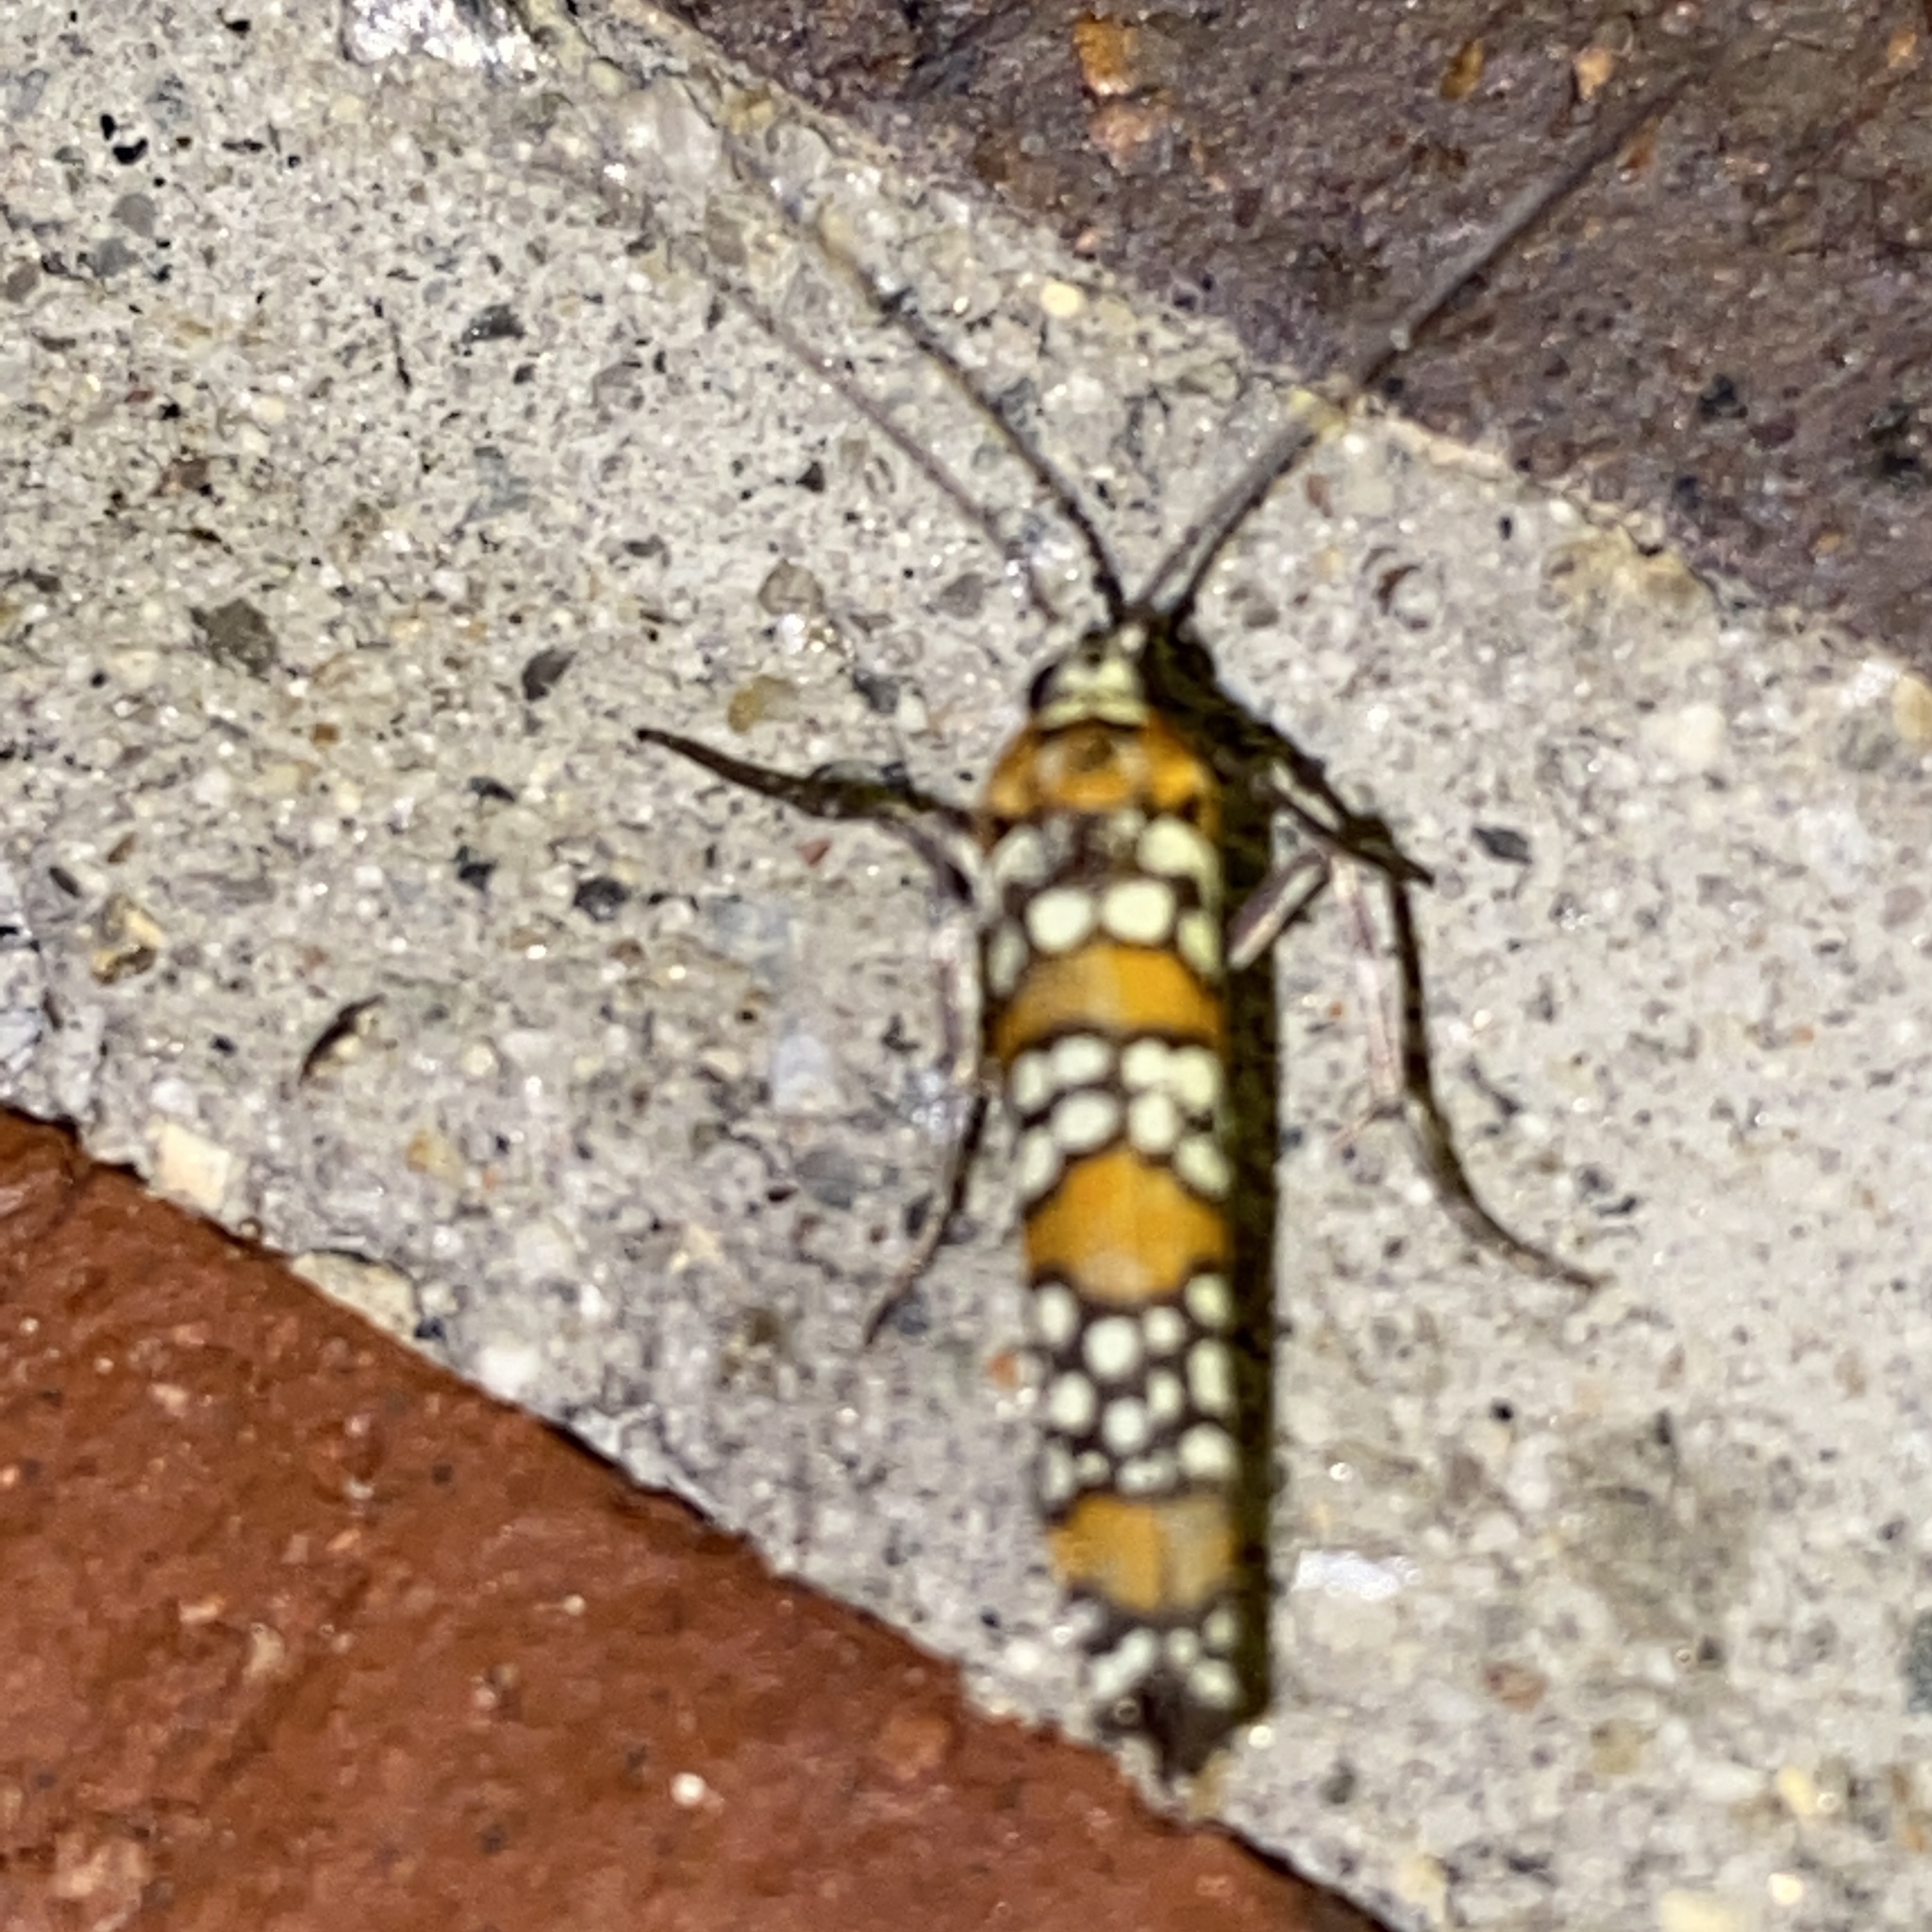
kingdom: Animalia
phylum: Arthropoda
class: Insecta
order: Lepidoptera
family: Attevidae
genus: Atteva
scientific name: Atteva punctella
